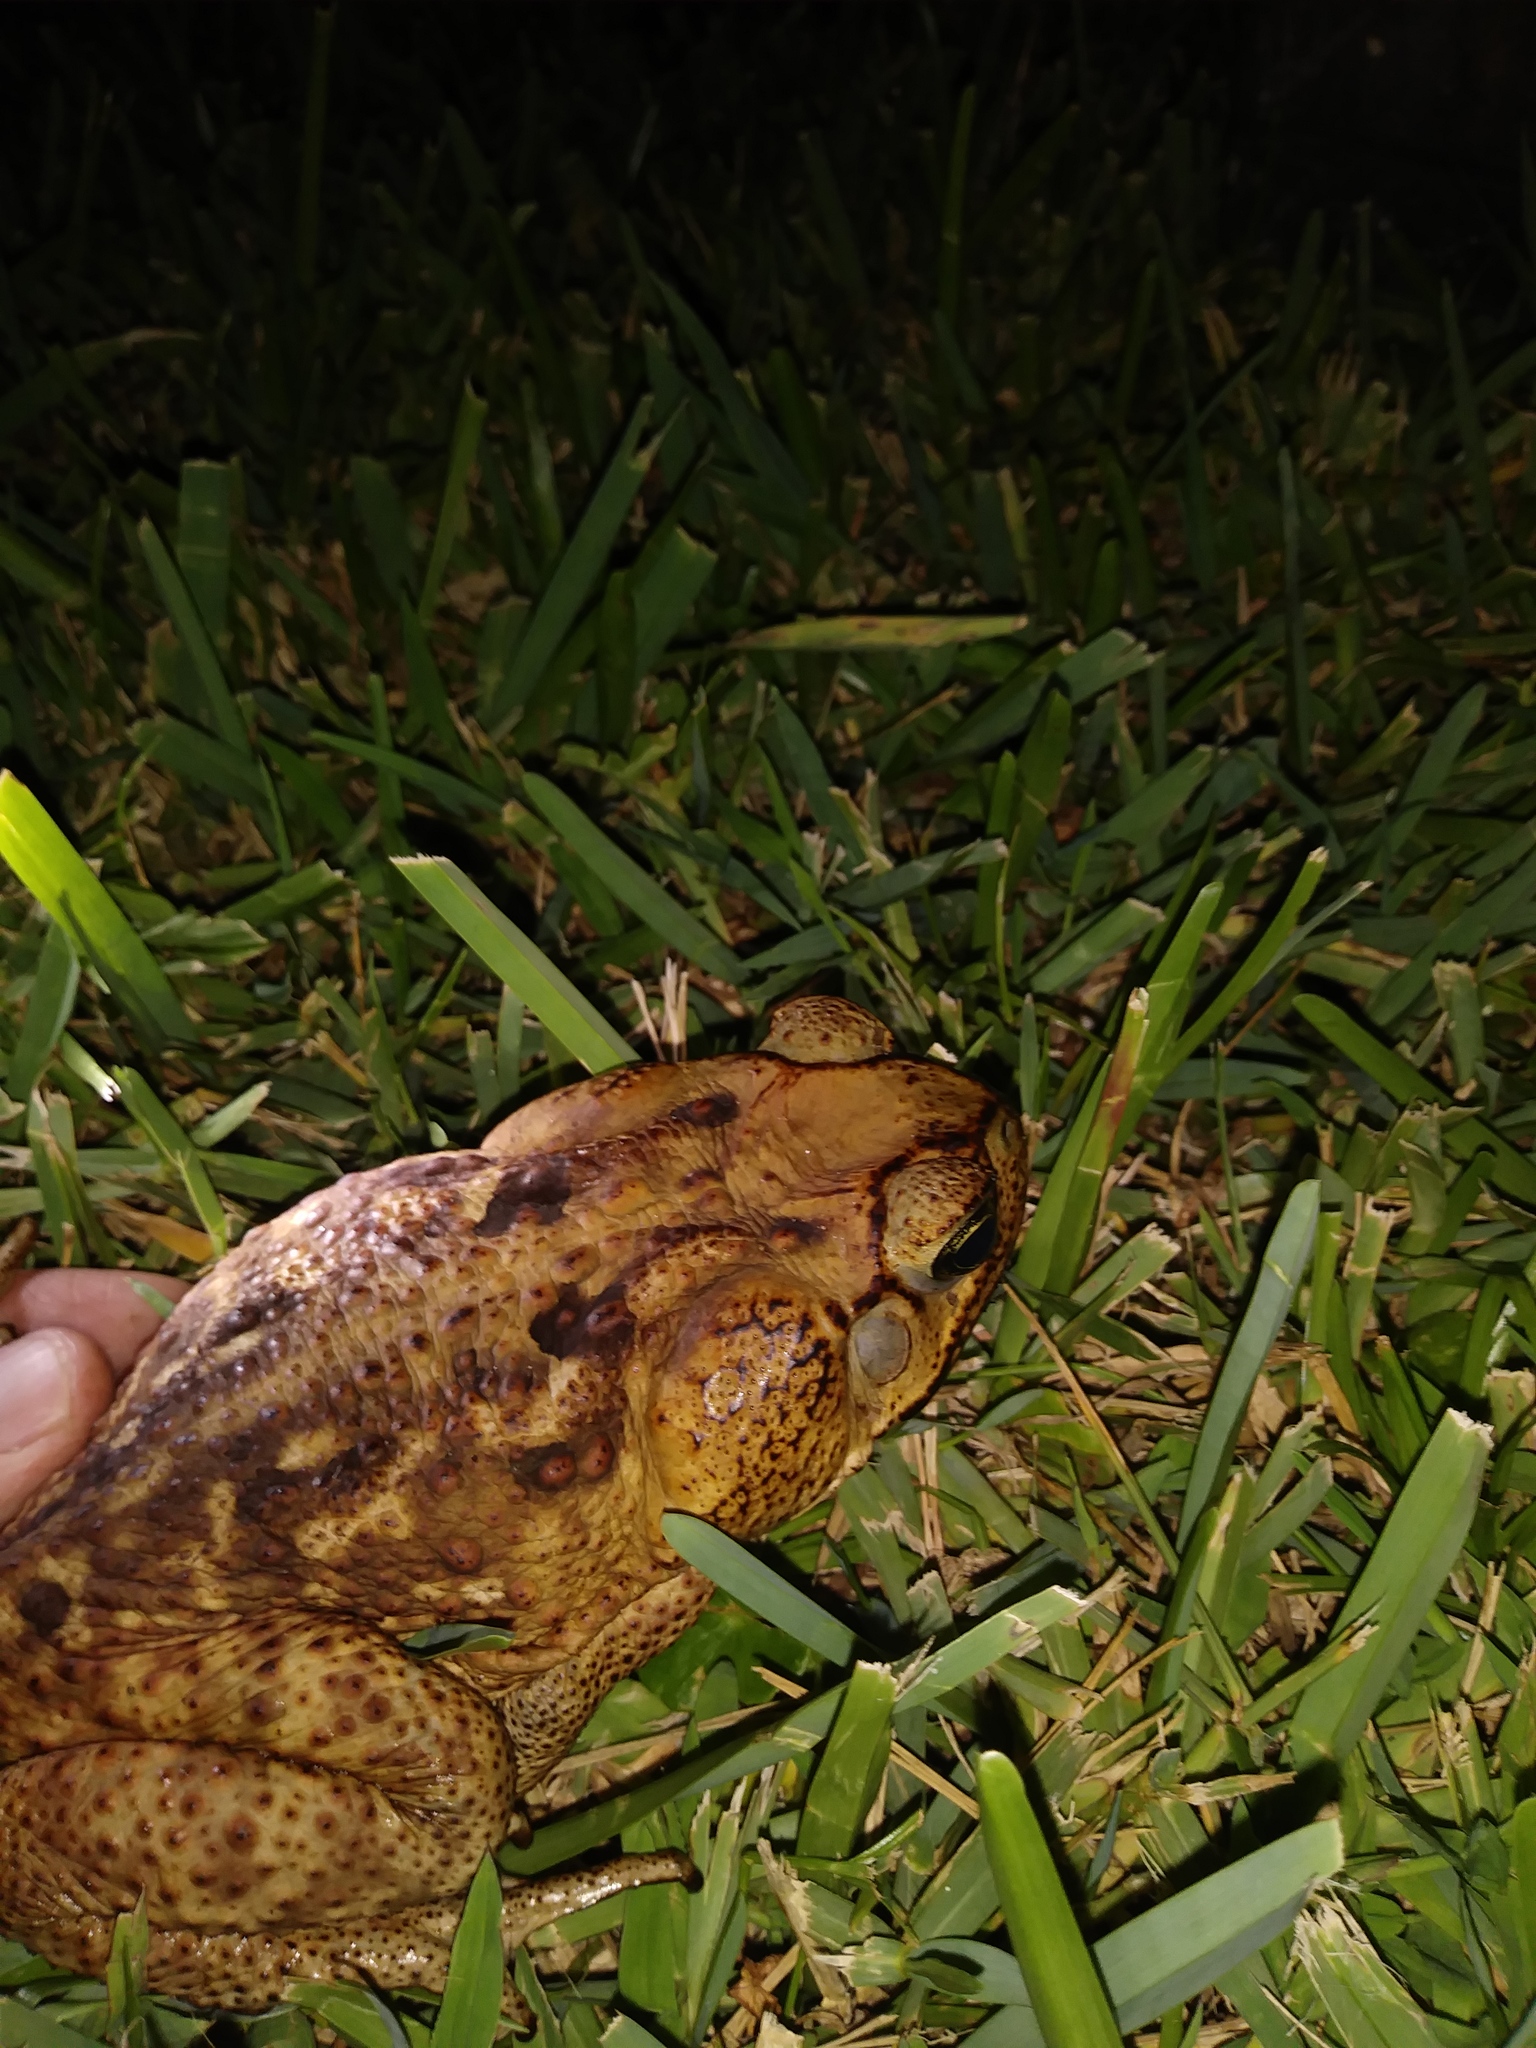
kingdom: Animalia
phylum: Chordata
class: Amphibia
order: Anura
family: Bufonidae
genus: Rhinella
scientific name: Rhinella horribilis
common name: Mesoamerican cane toad
